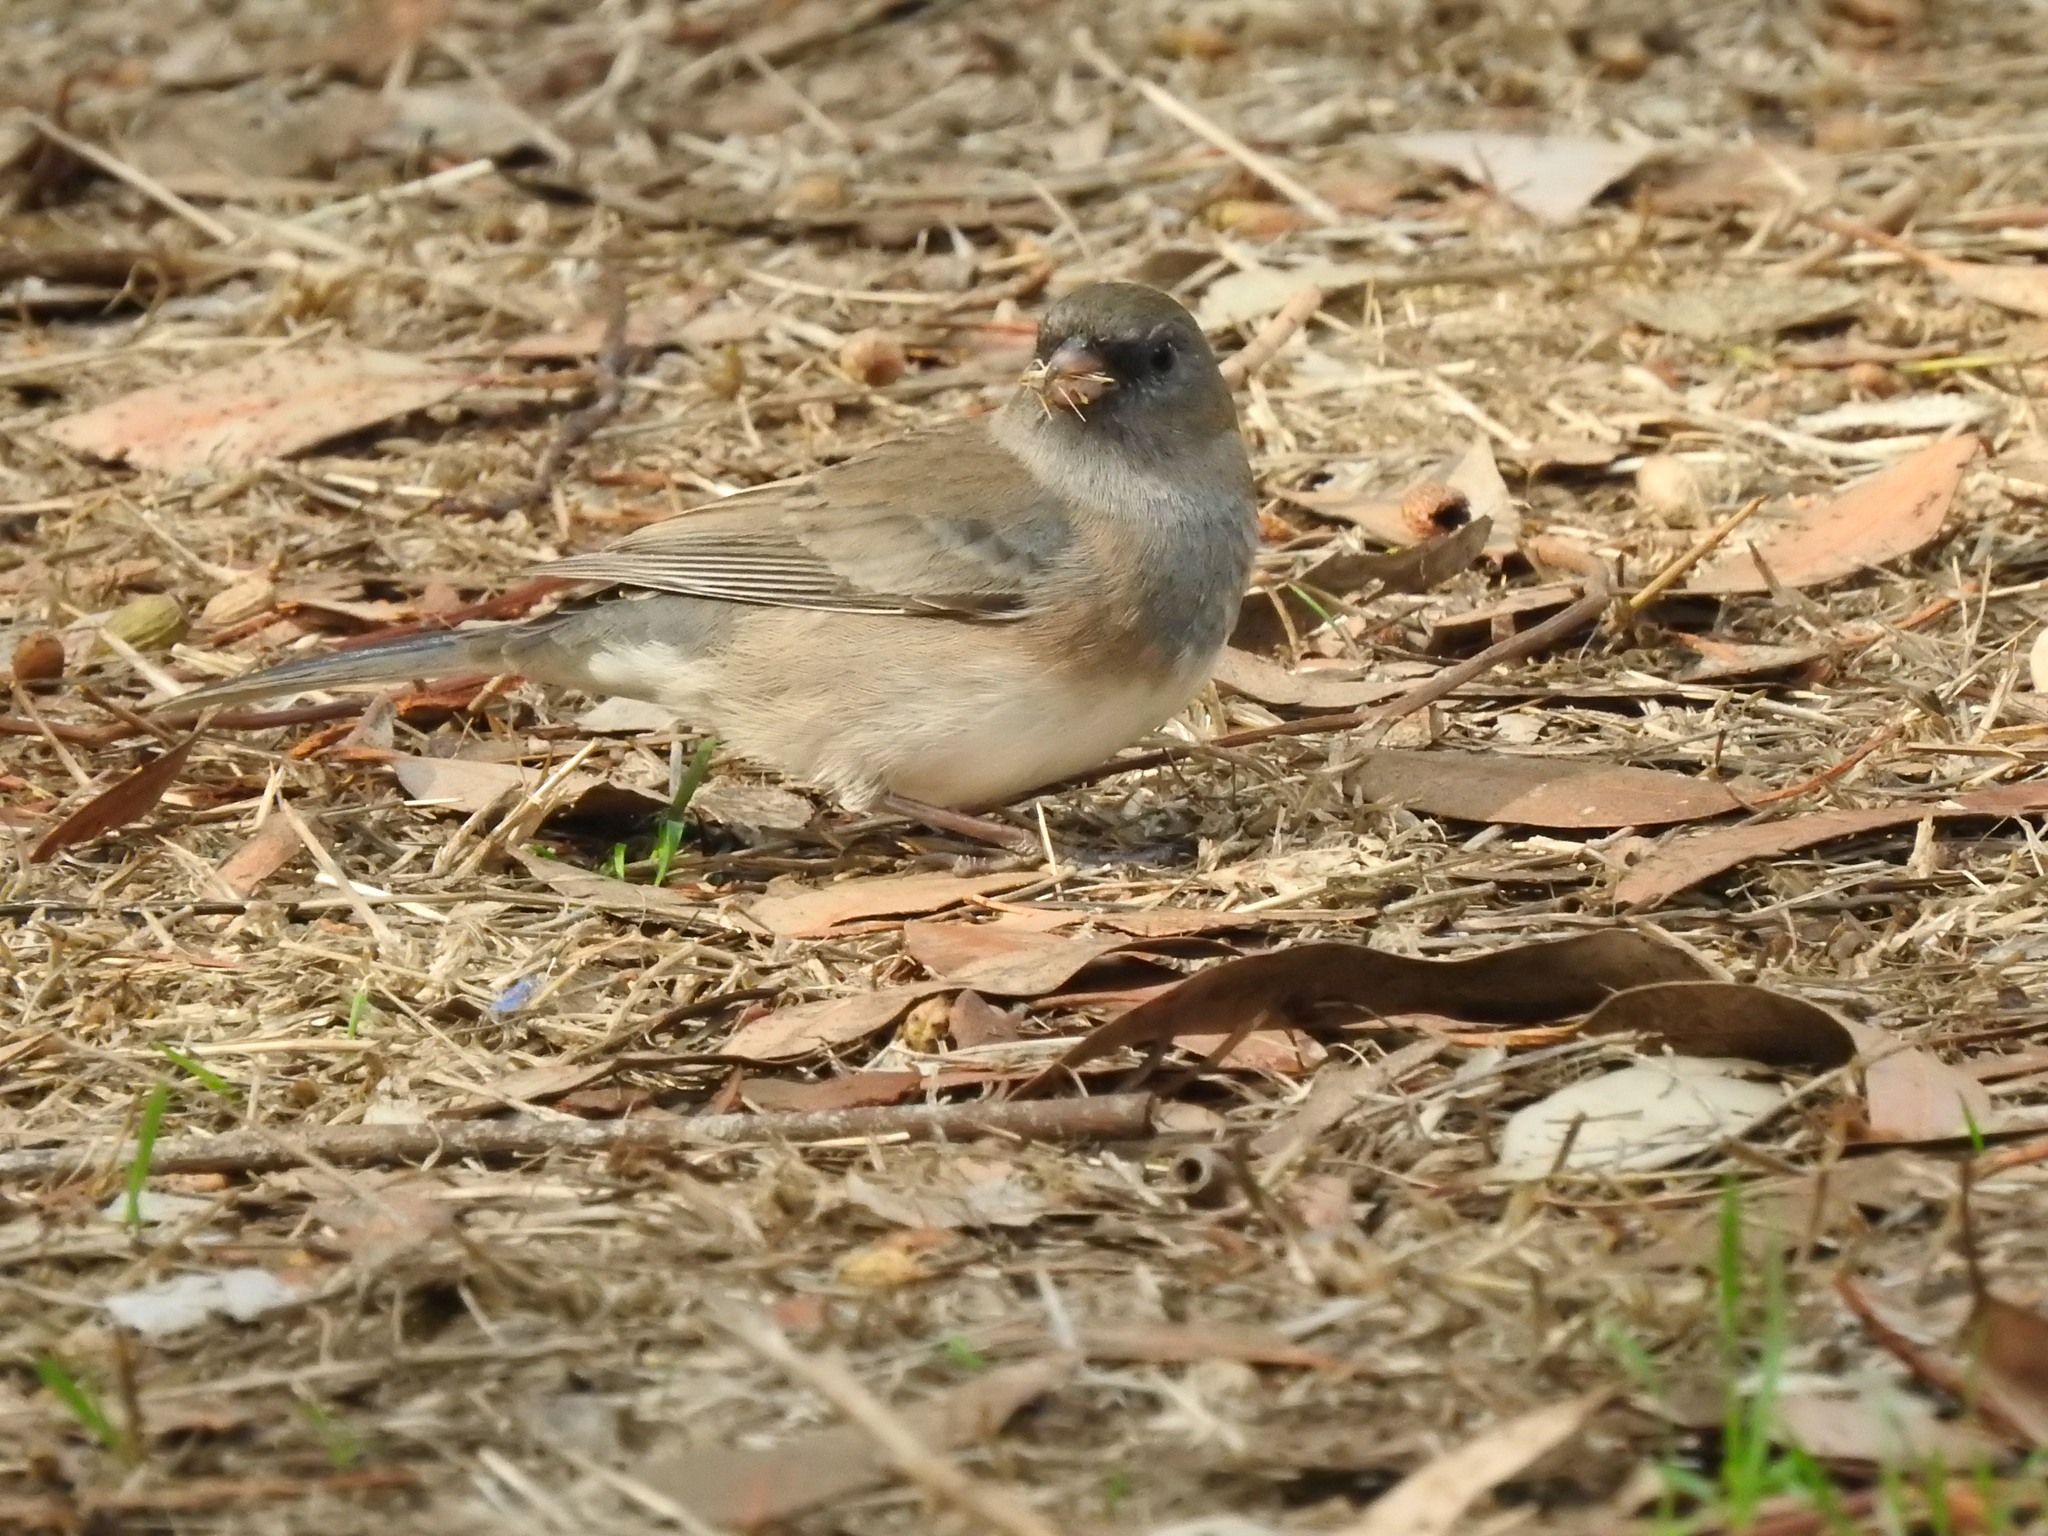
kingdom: Animalia
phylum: Chordata
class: Aves
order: Passeriformes
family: Passerellidae
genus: Junco
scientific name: Junco hyemalis
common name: Dark-eyed junco
